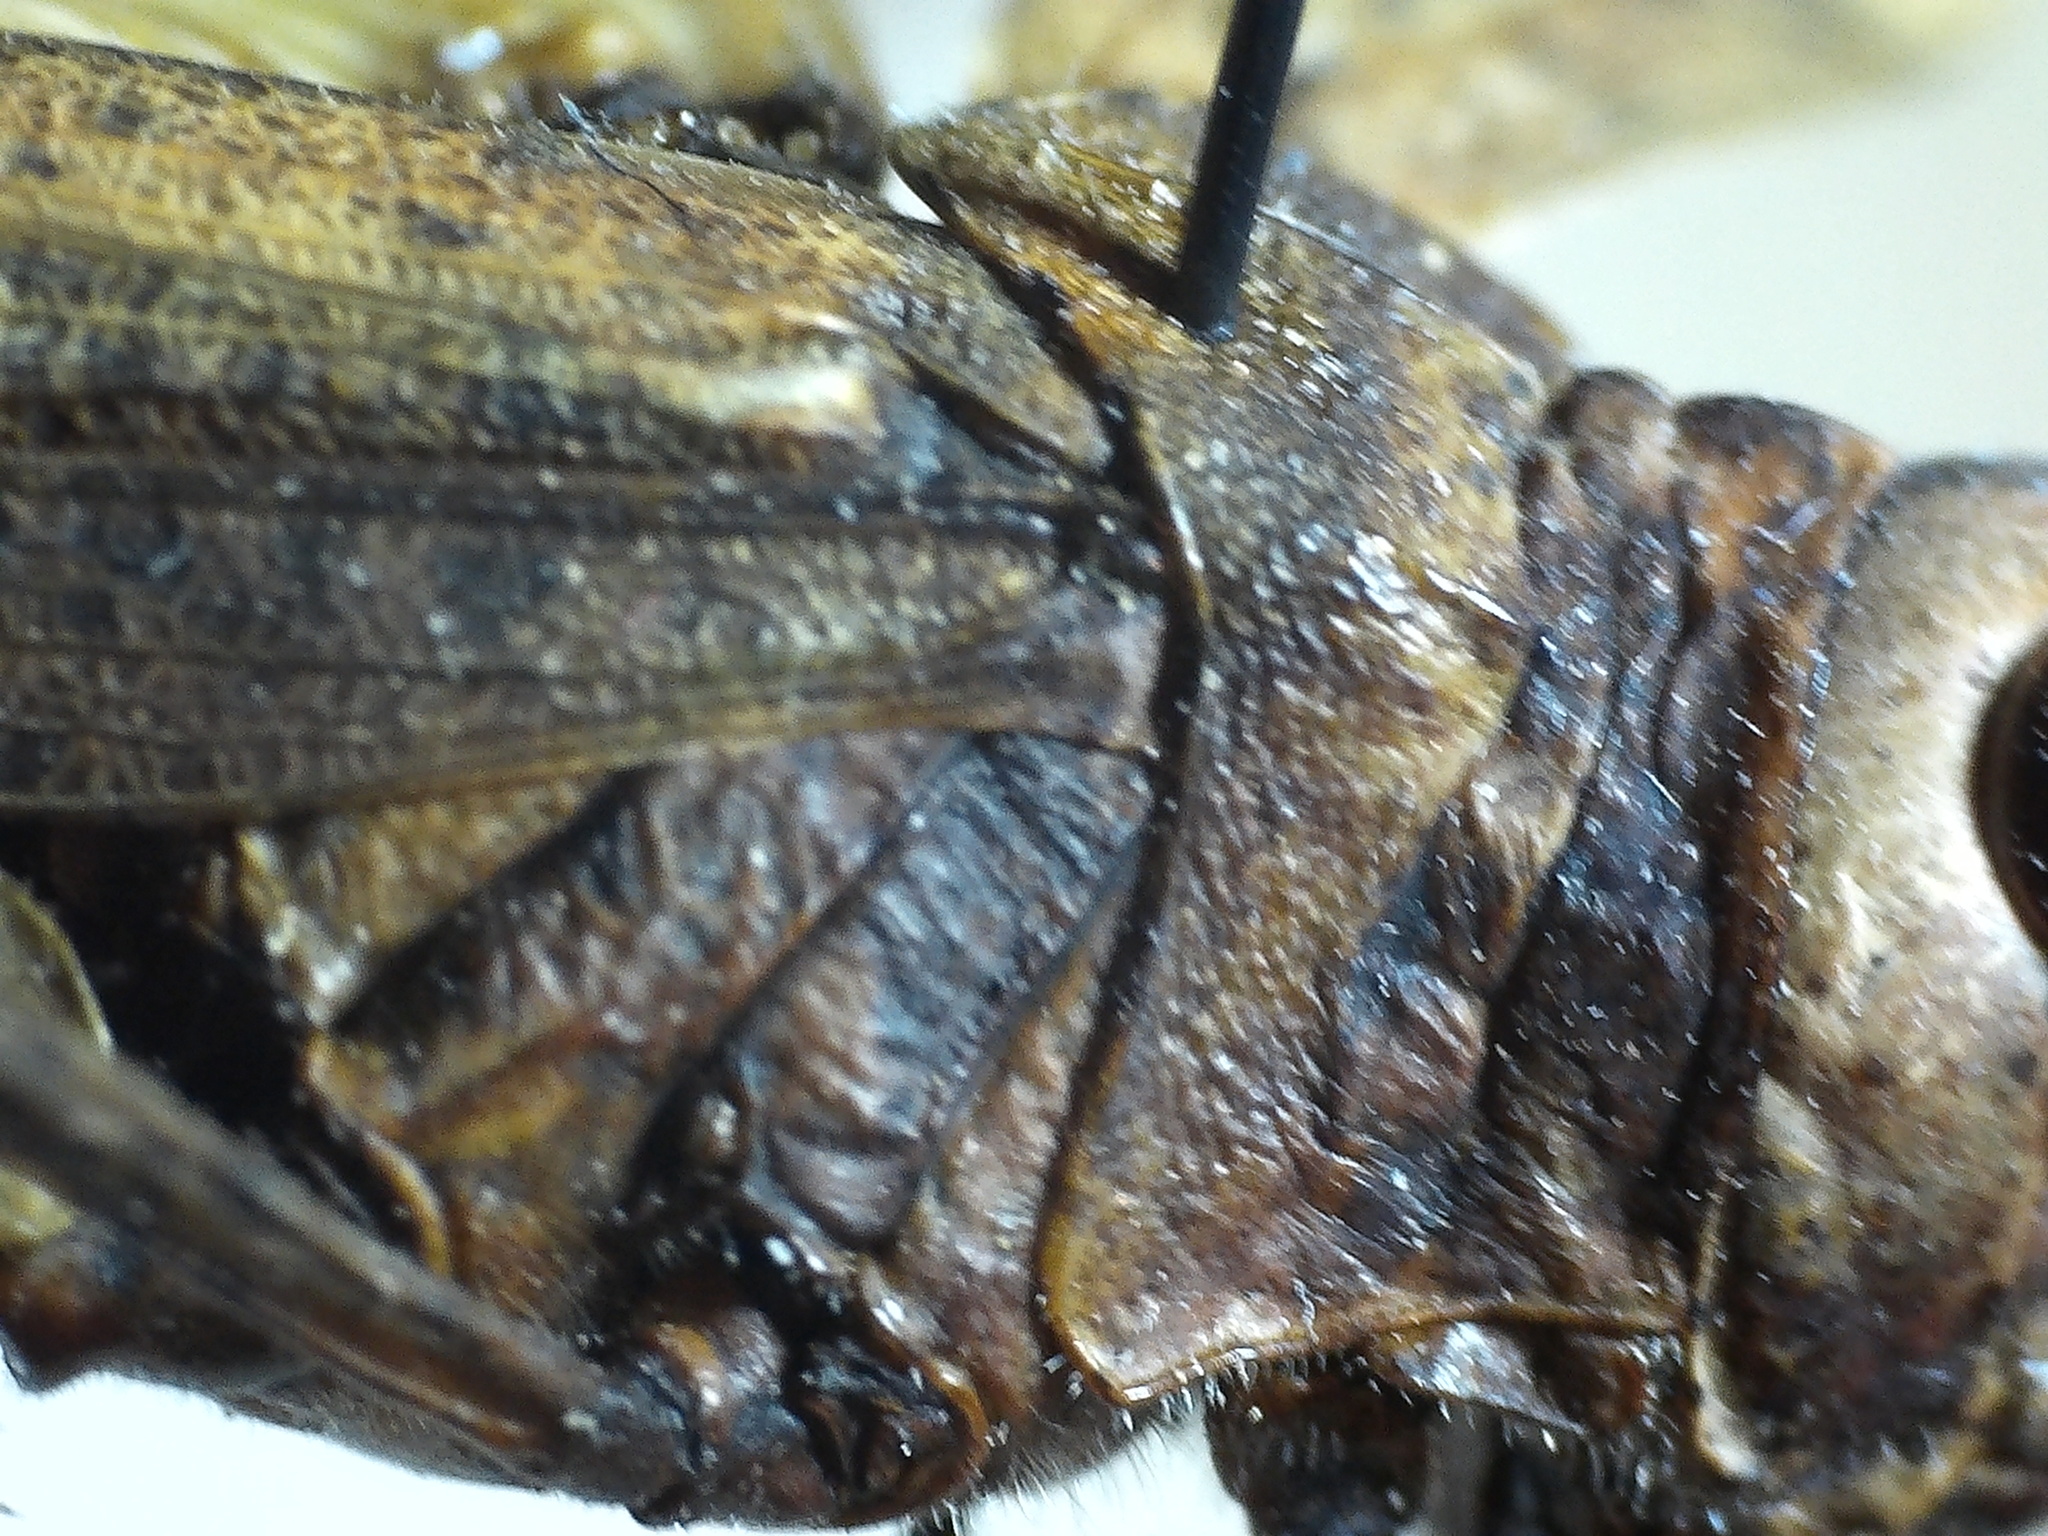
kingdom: Animalia
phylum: Arthropoda
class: Insecta
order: Orthoptera
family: Acrididae
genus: Trimerotropis
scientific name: Trimerotropis agrestis
